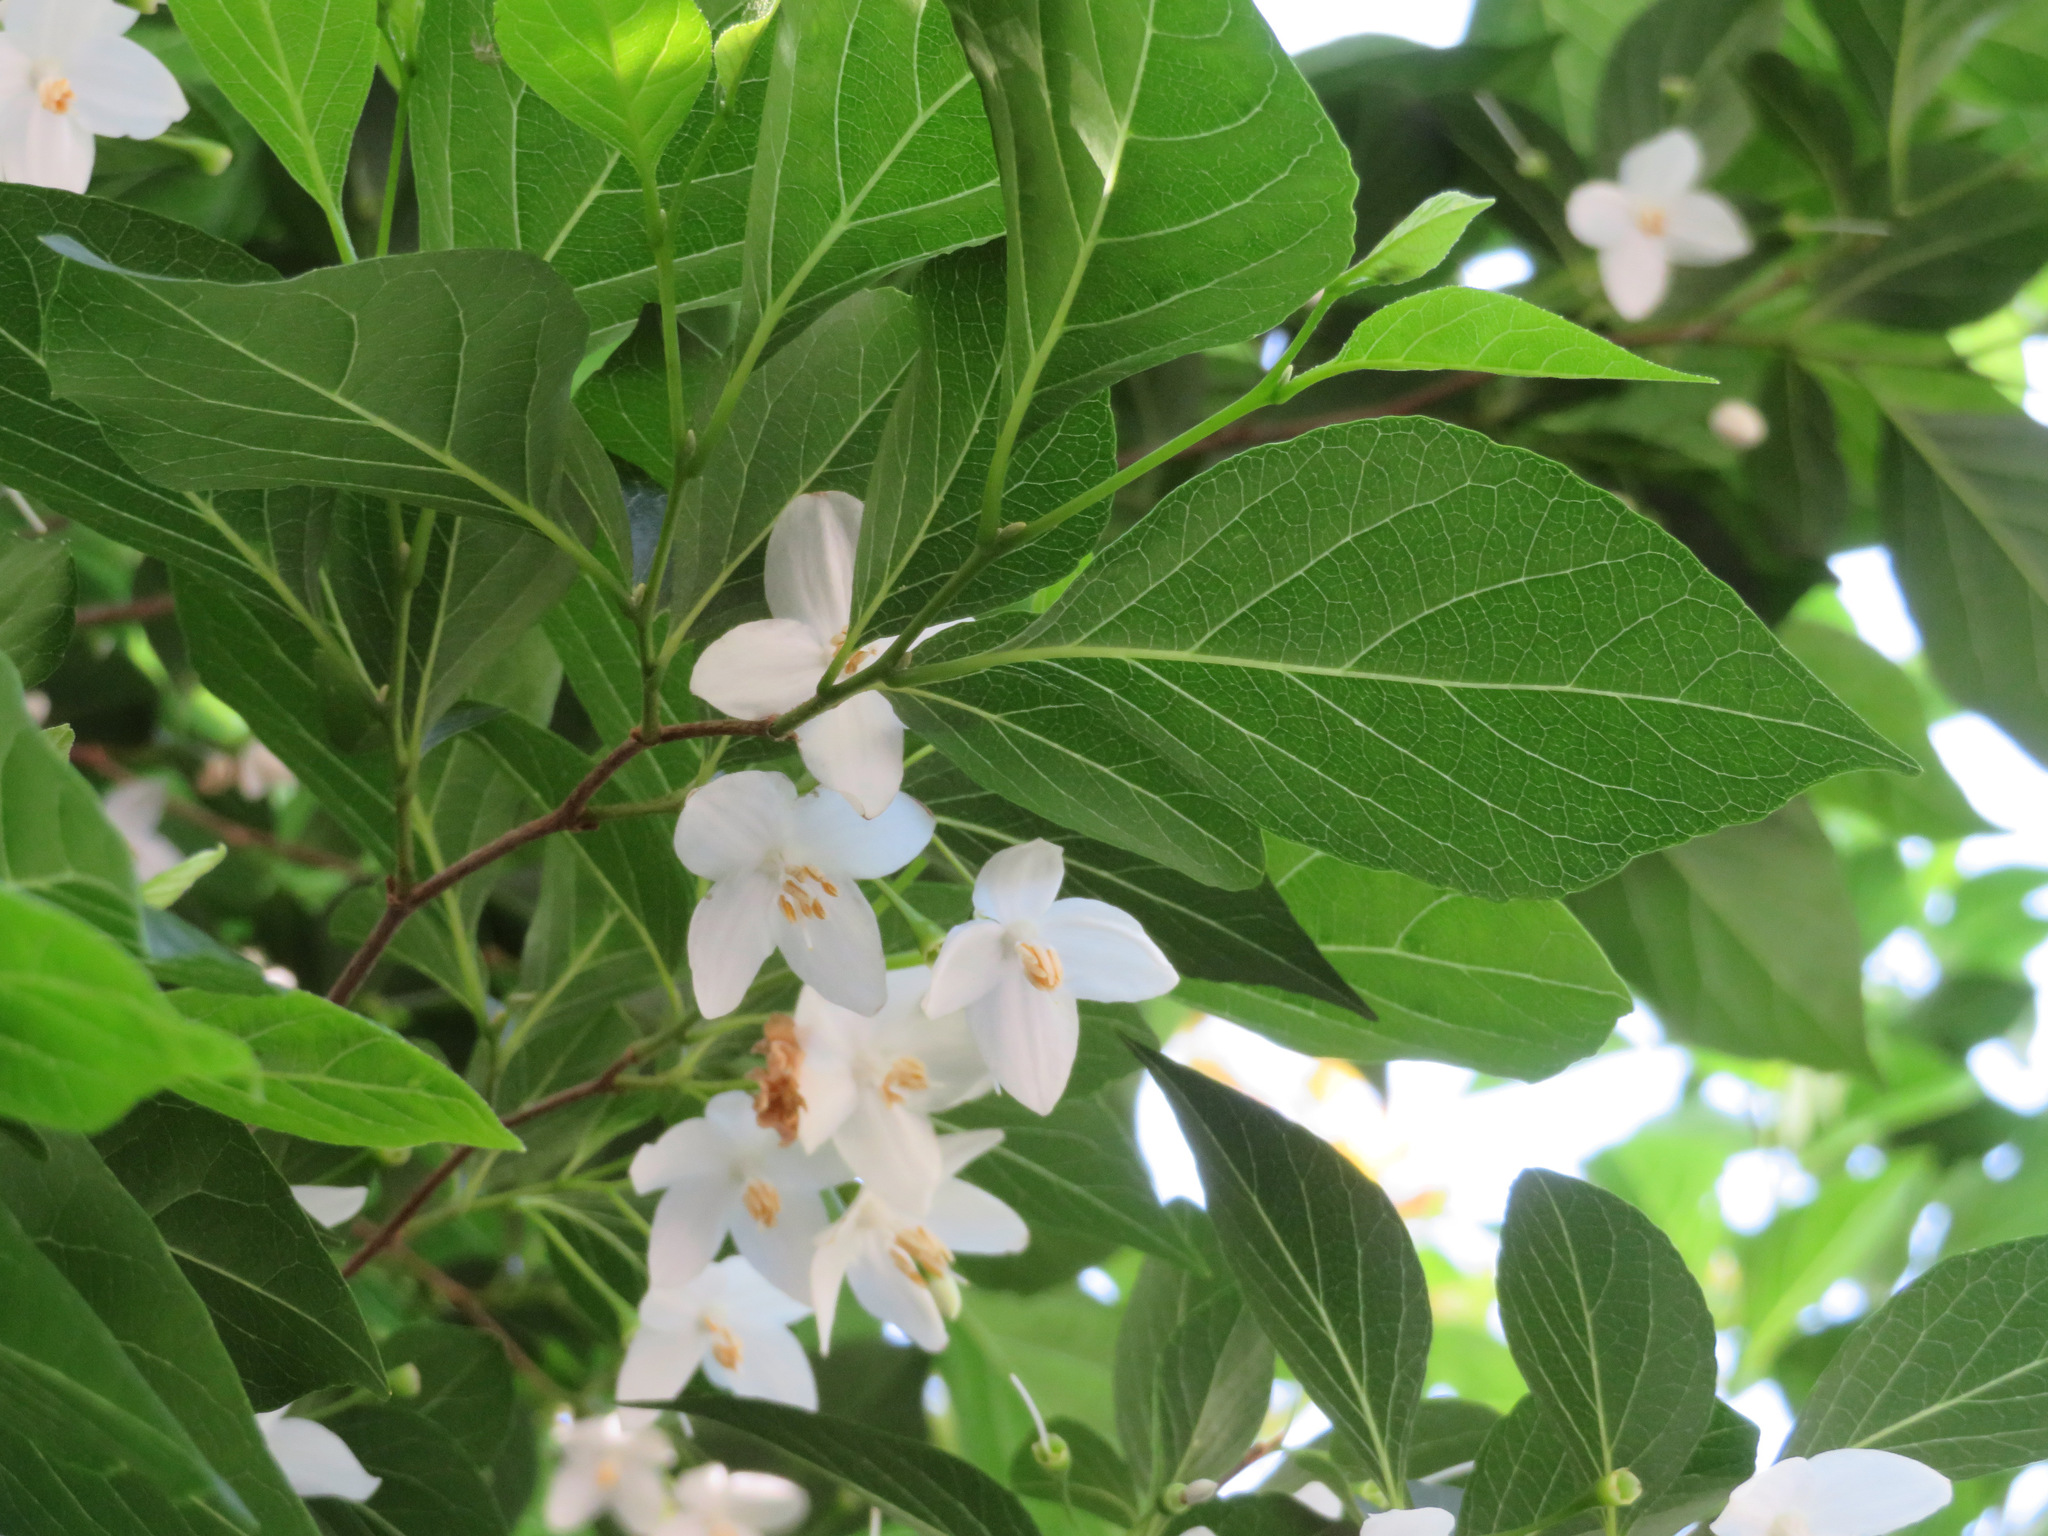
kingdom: Plantae
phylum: Tracheophyta
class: Magnoliopsida
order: Ericales
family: Styracaceae
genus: Styrax
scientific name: Styrax japonicus
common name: Japanese snowbell
